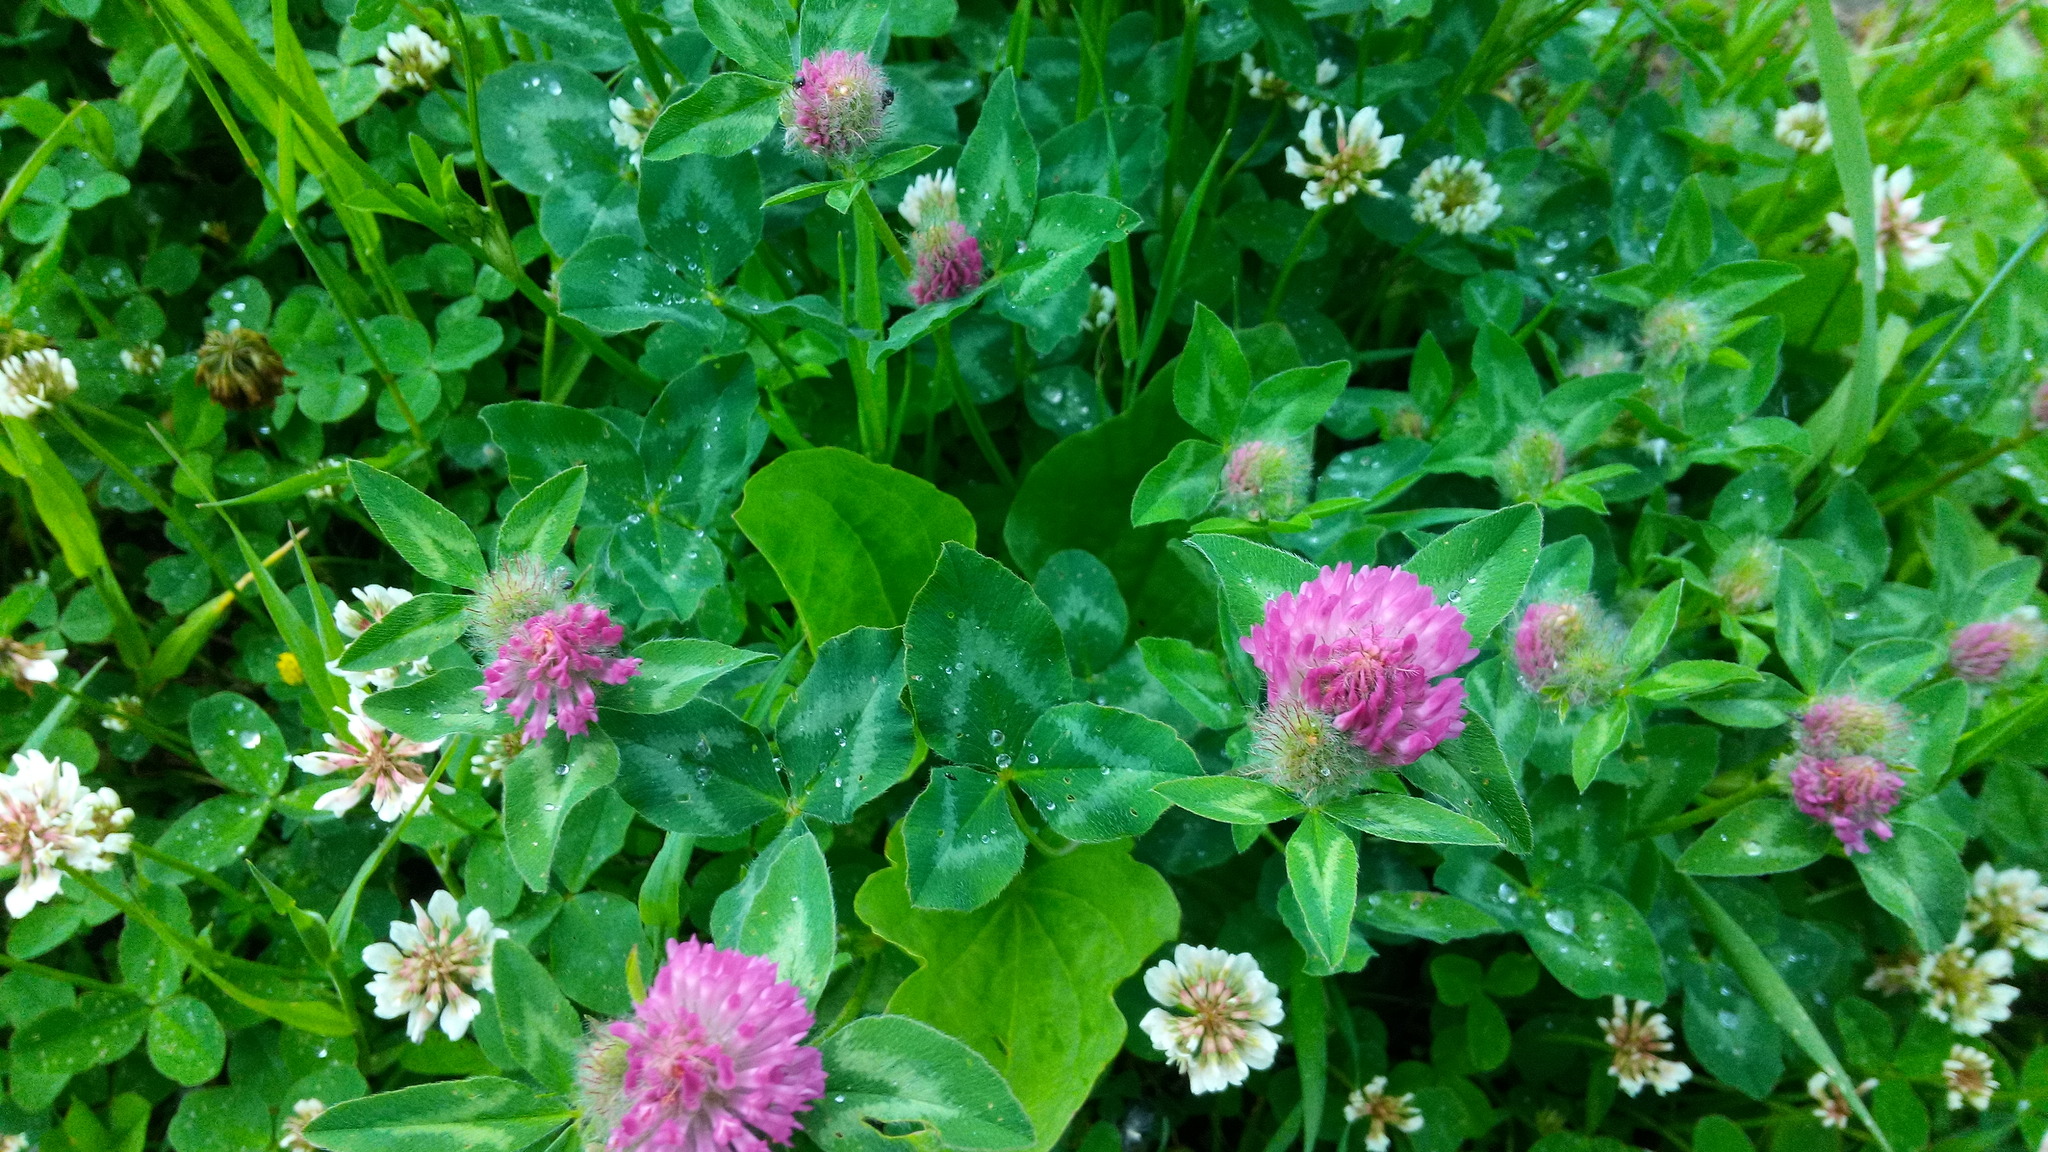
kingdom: Plantae
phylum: Tracheophyta
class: Magnoliopsida
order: Fabales
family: Fabaceae
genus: Trifolium
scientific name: Trifolium pratense
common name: Red clover
